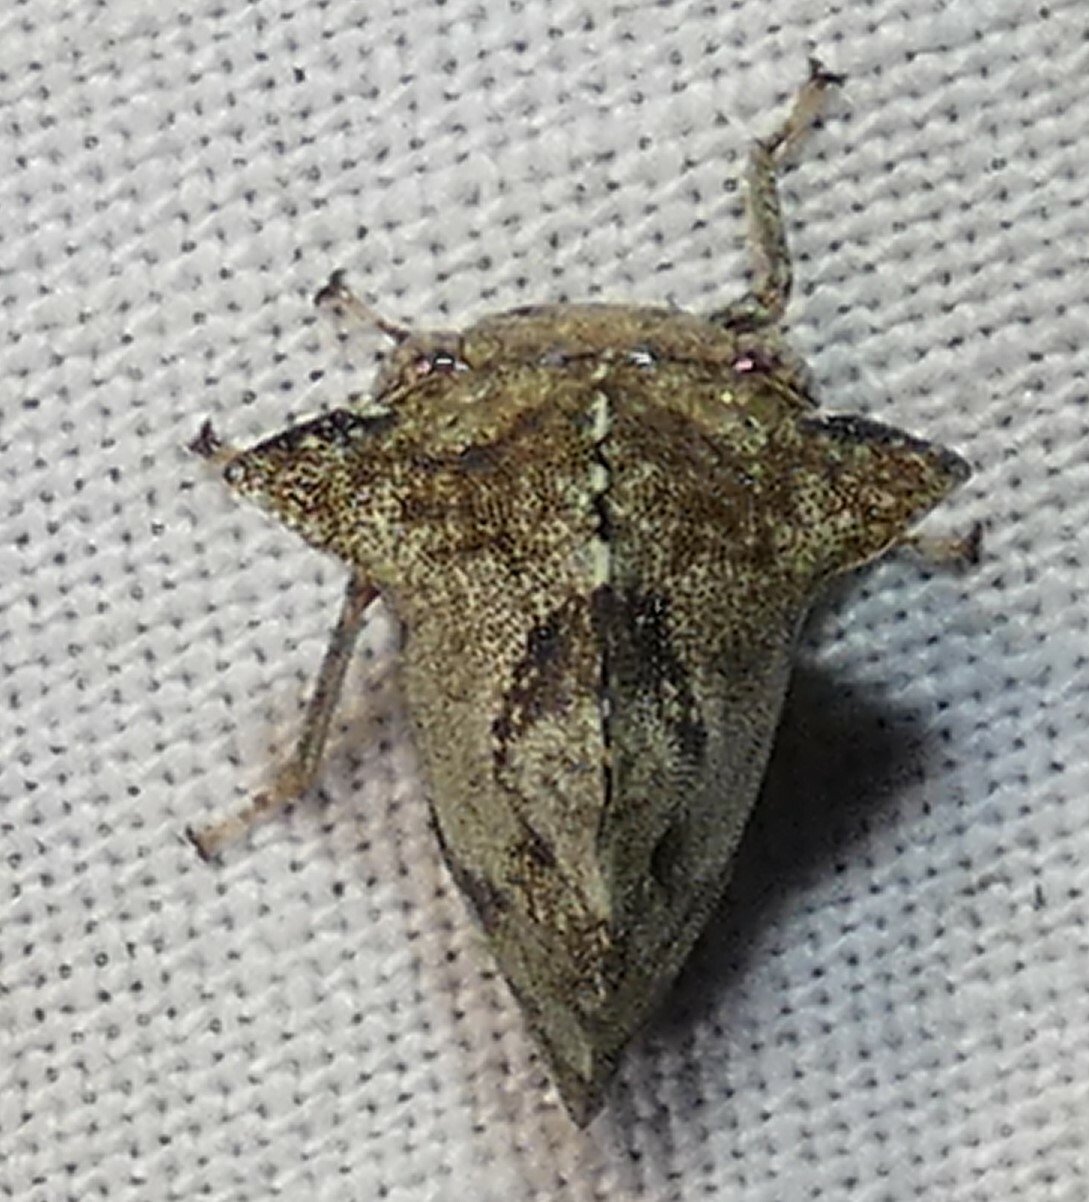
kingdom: Animalia
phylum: Arthropoda
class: Insecta
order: Hemiptera
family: Membracidae
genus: Heliria
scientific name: Heliria cornutula
